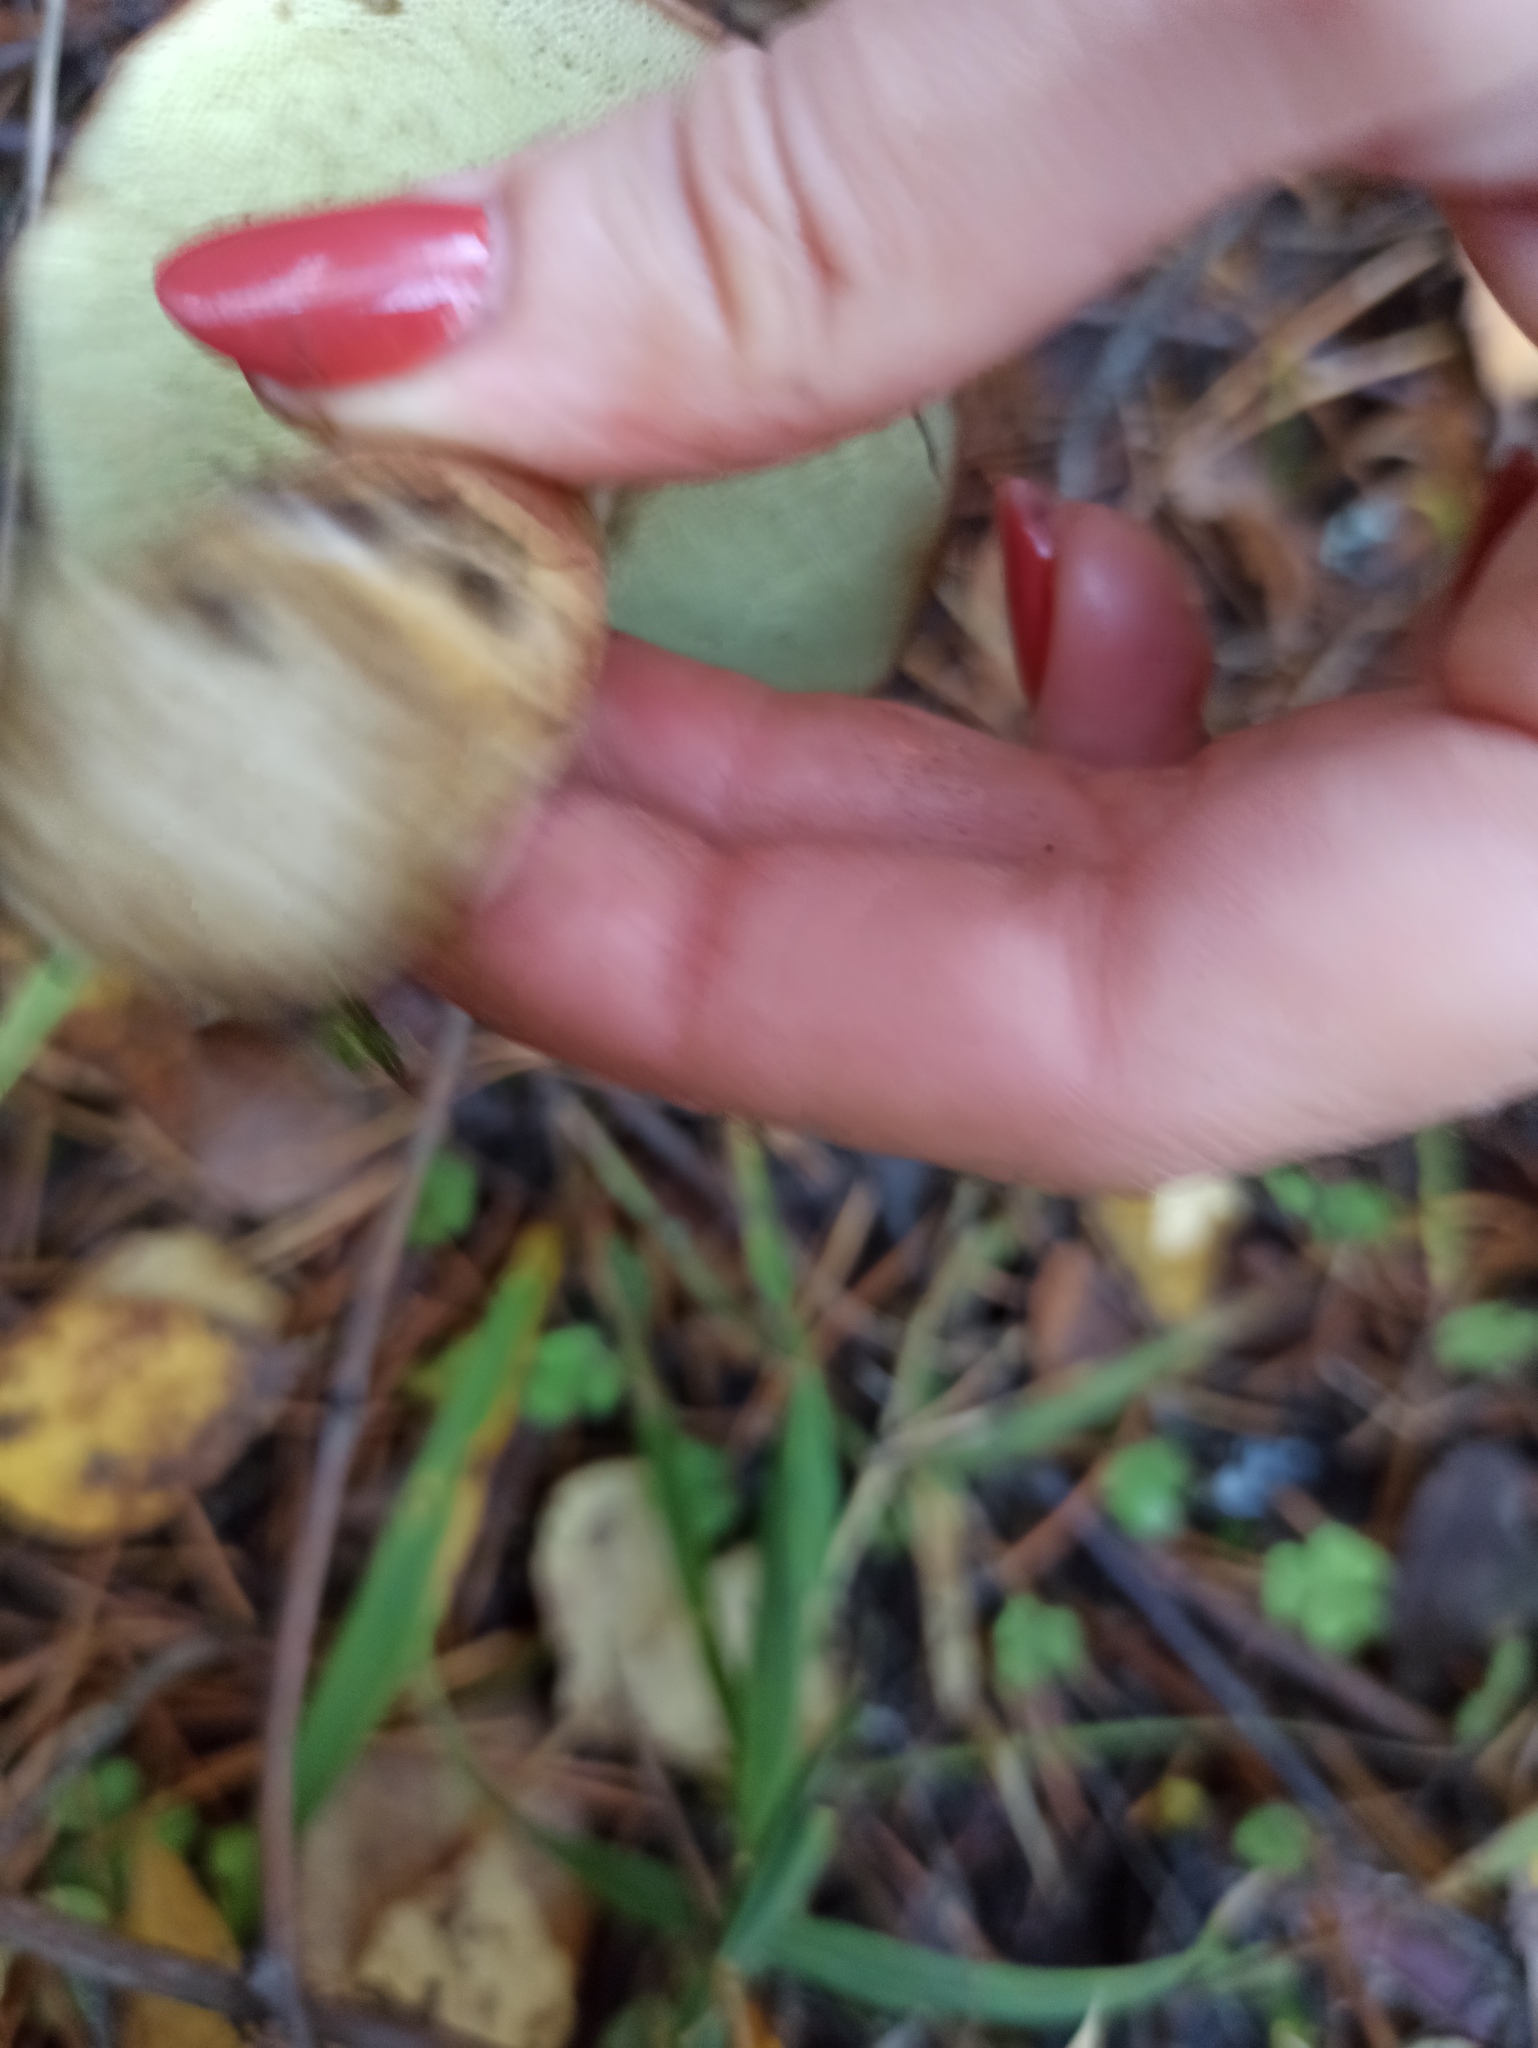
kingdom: Fungi
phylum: Basidiomycota
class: Agaricomycetes
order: Boletales
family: Boletaceae
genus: Imleria
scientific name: Imleria badia
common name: Bay bolete
